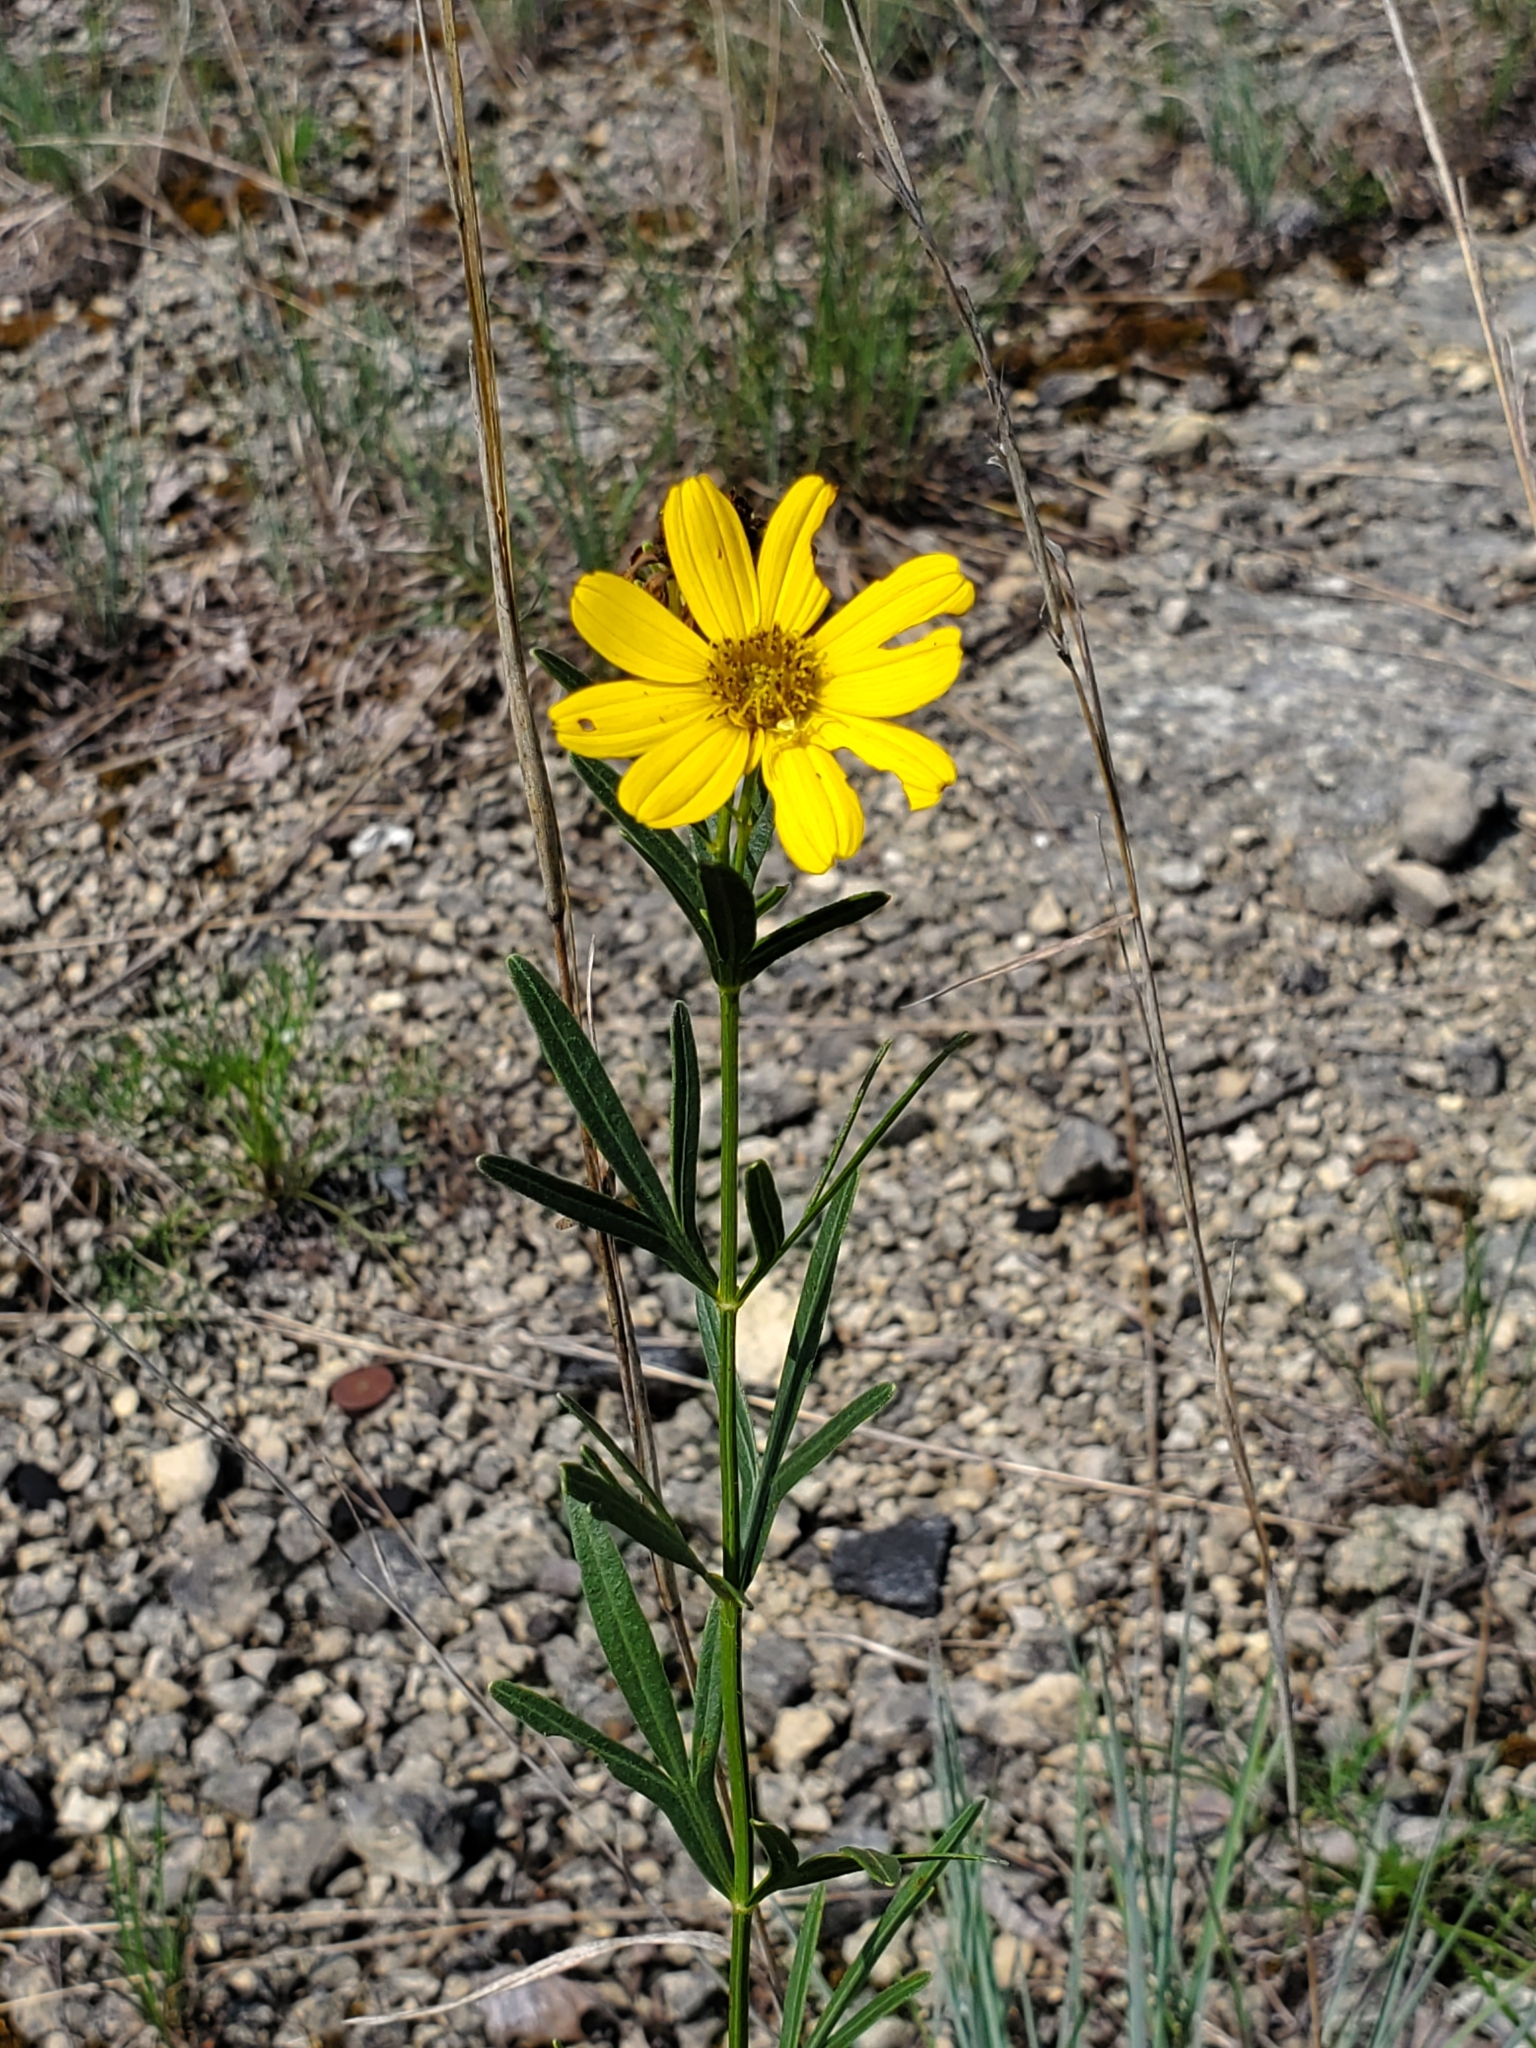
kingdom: Plantae
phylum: Tracheophyta
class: Magnoliopsida
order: Asterales
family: Asteraceae
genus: Coreopsis
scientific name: Coreopsis palmata
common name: Prairie coreopsis
